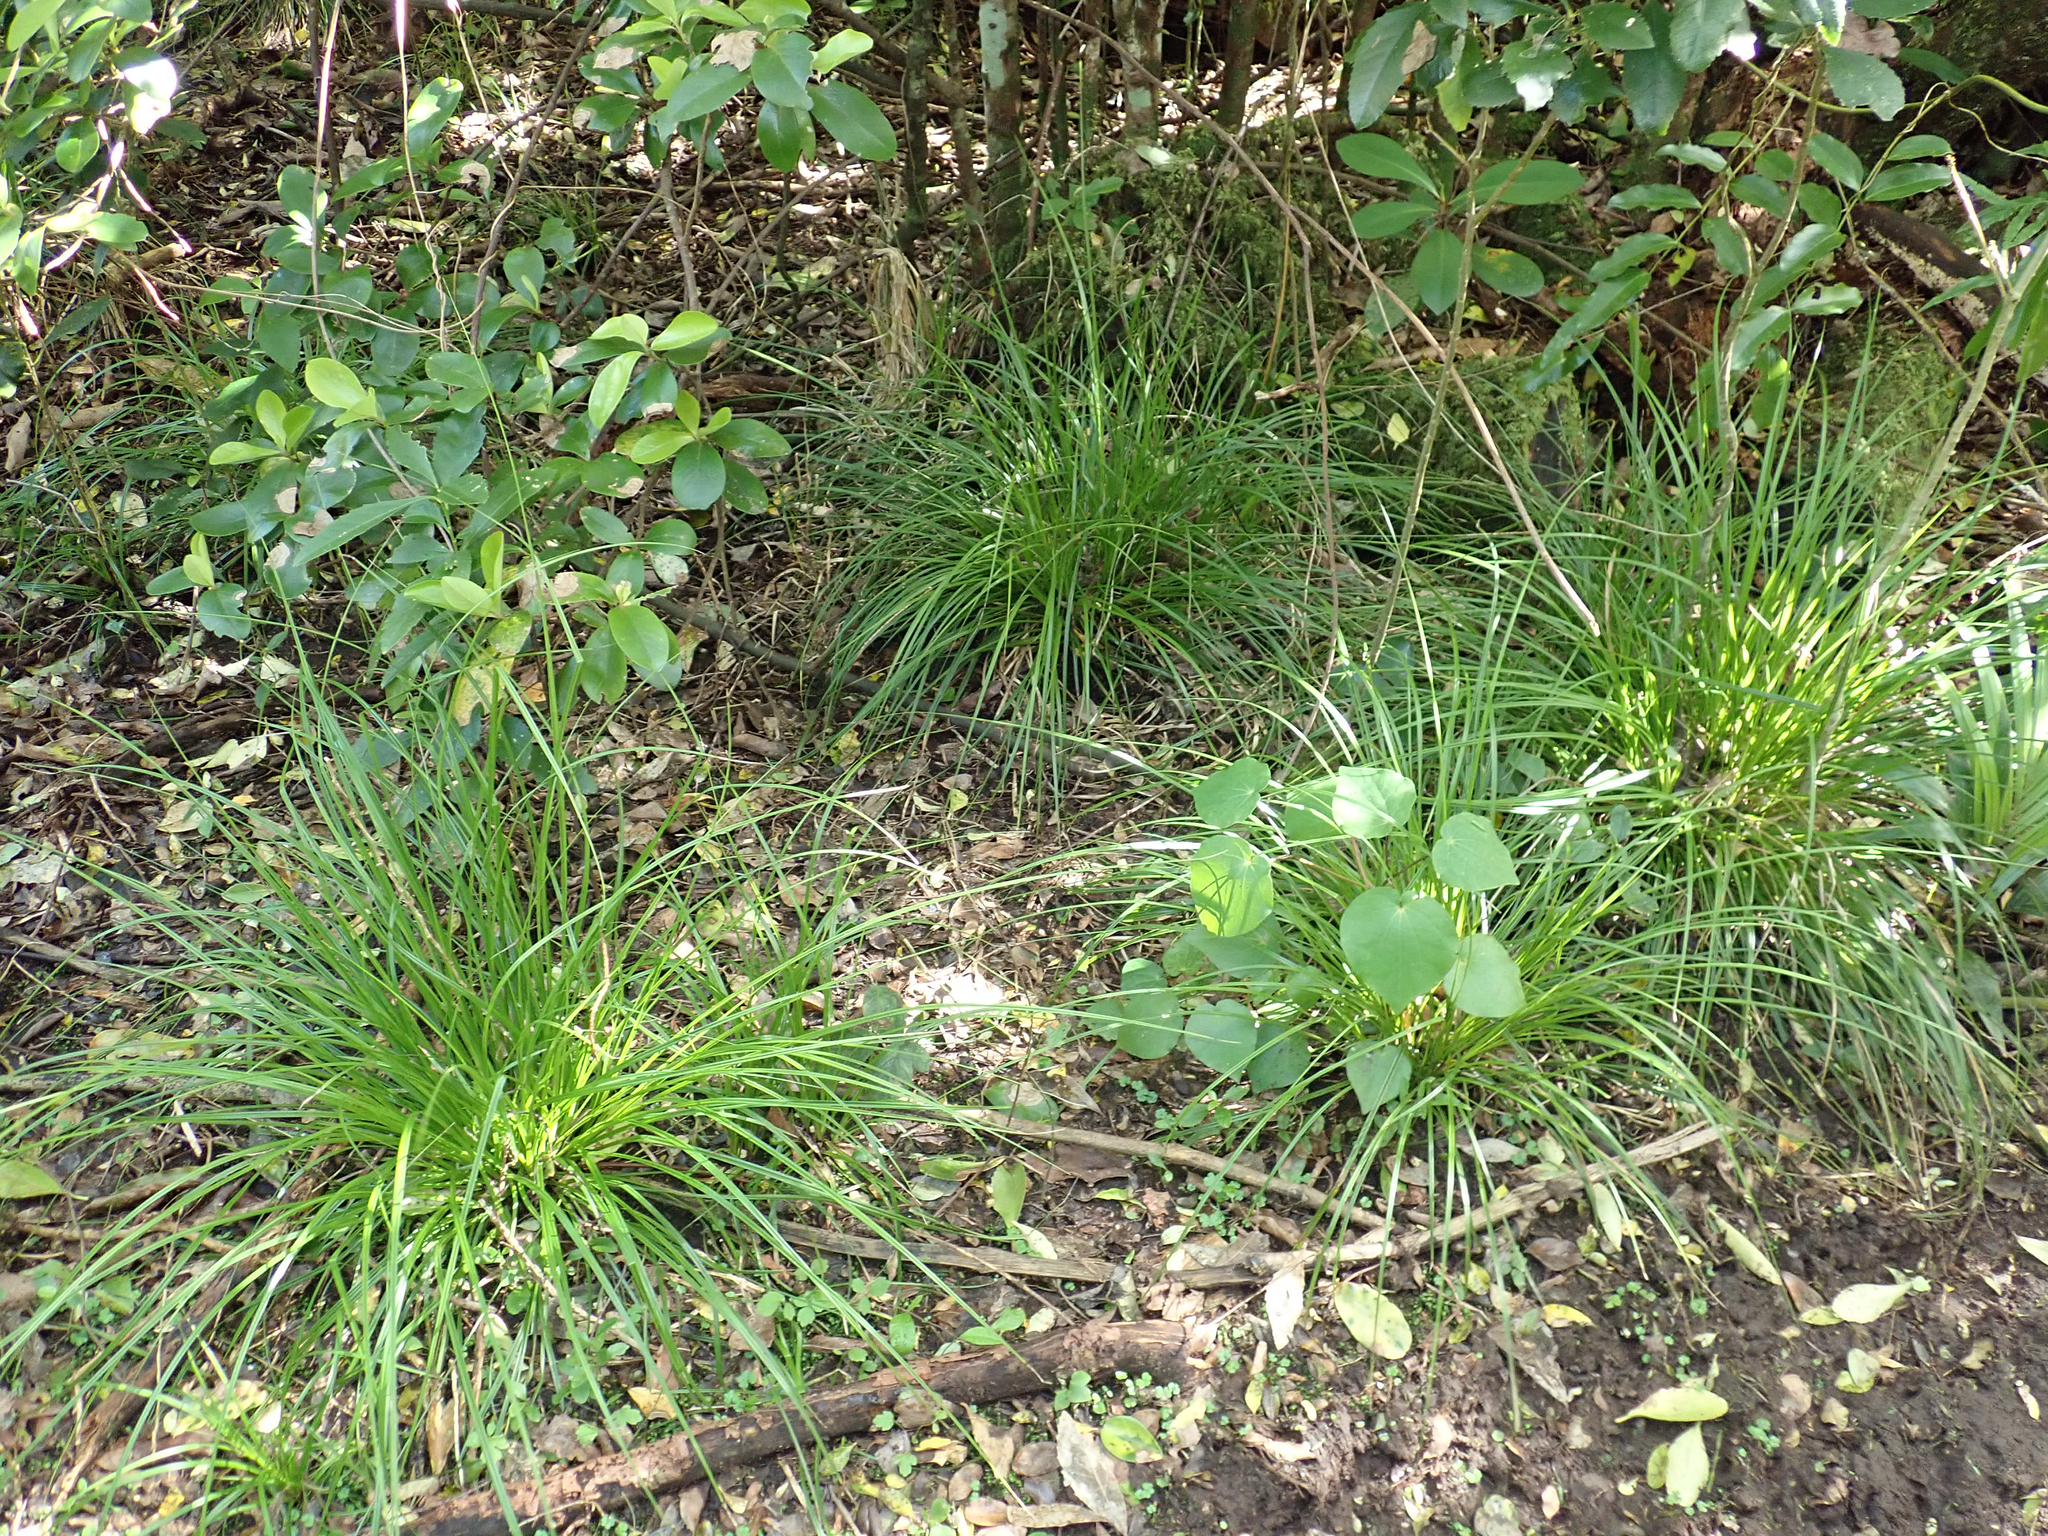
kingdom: Plantae
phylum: Tracheophyta
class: Liliopsida
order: Poales
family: Cyperaceae
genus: Carex
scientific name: Carex auceps
